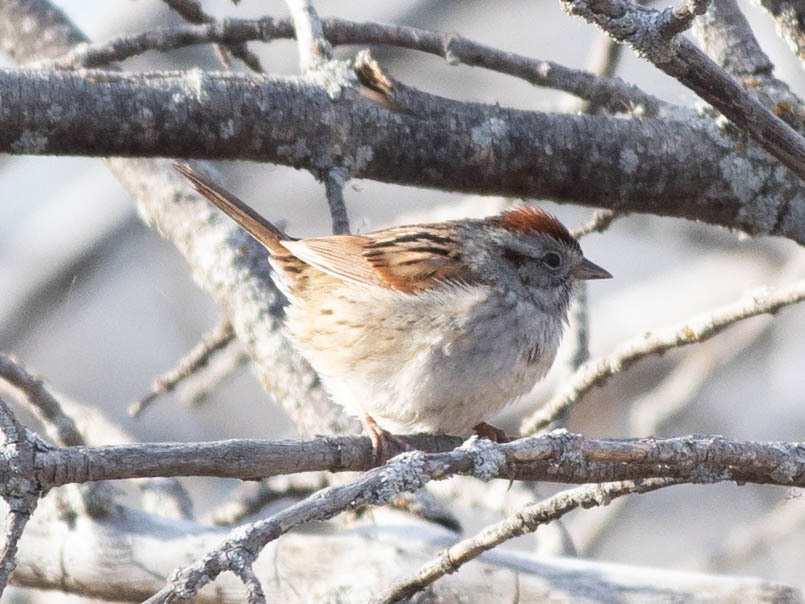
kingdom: Animalia
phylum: Chordata
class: Aves
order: Passeriformes
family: Passerellidae
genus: Melospiza
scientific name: Melospiza georgiana
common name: Swamp sparrow
